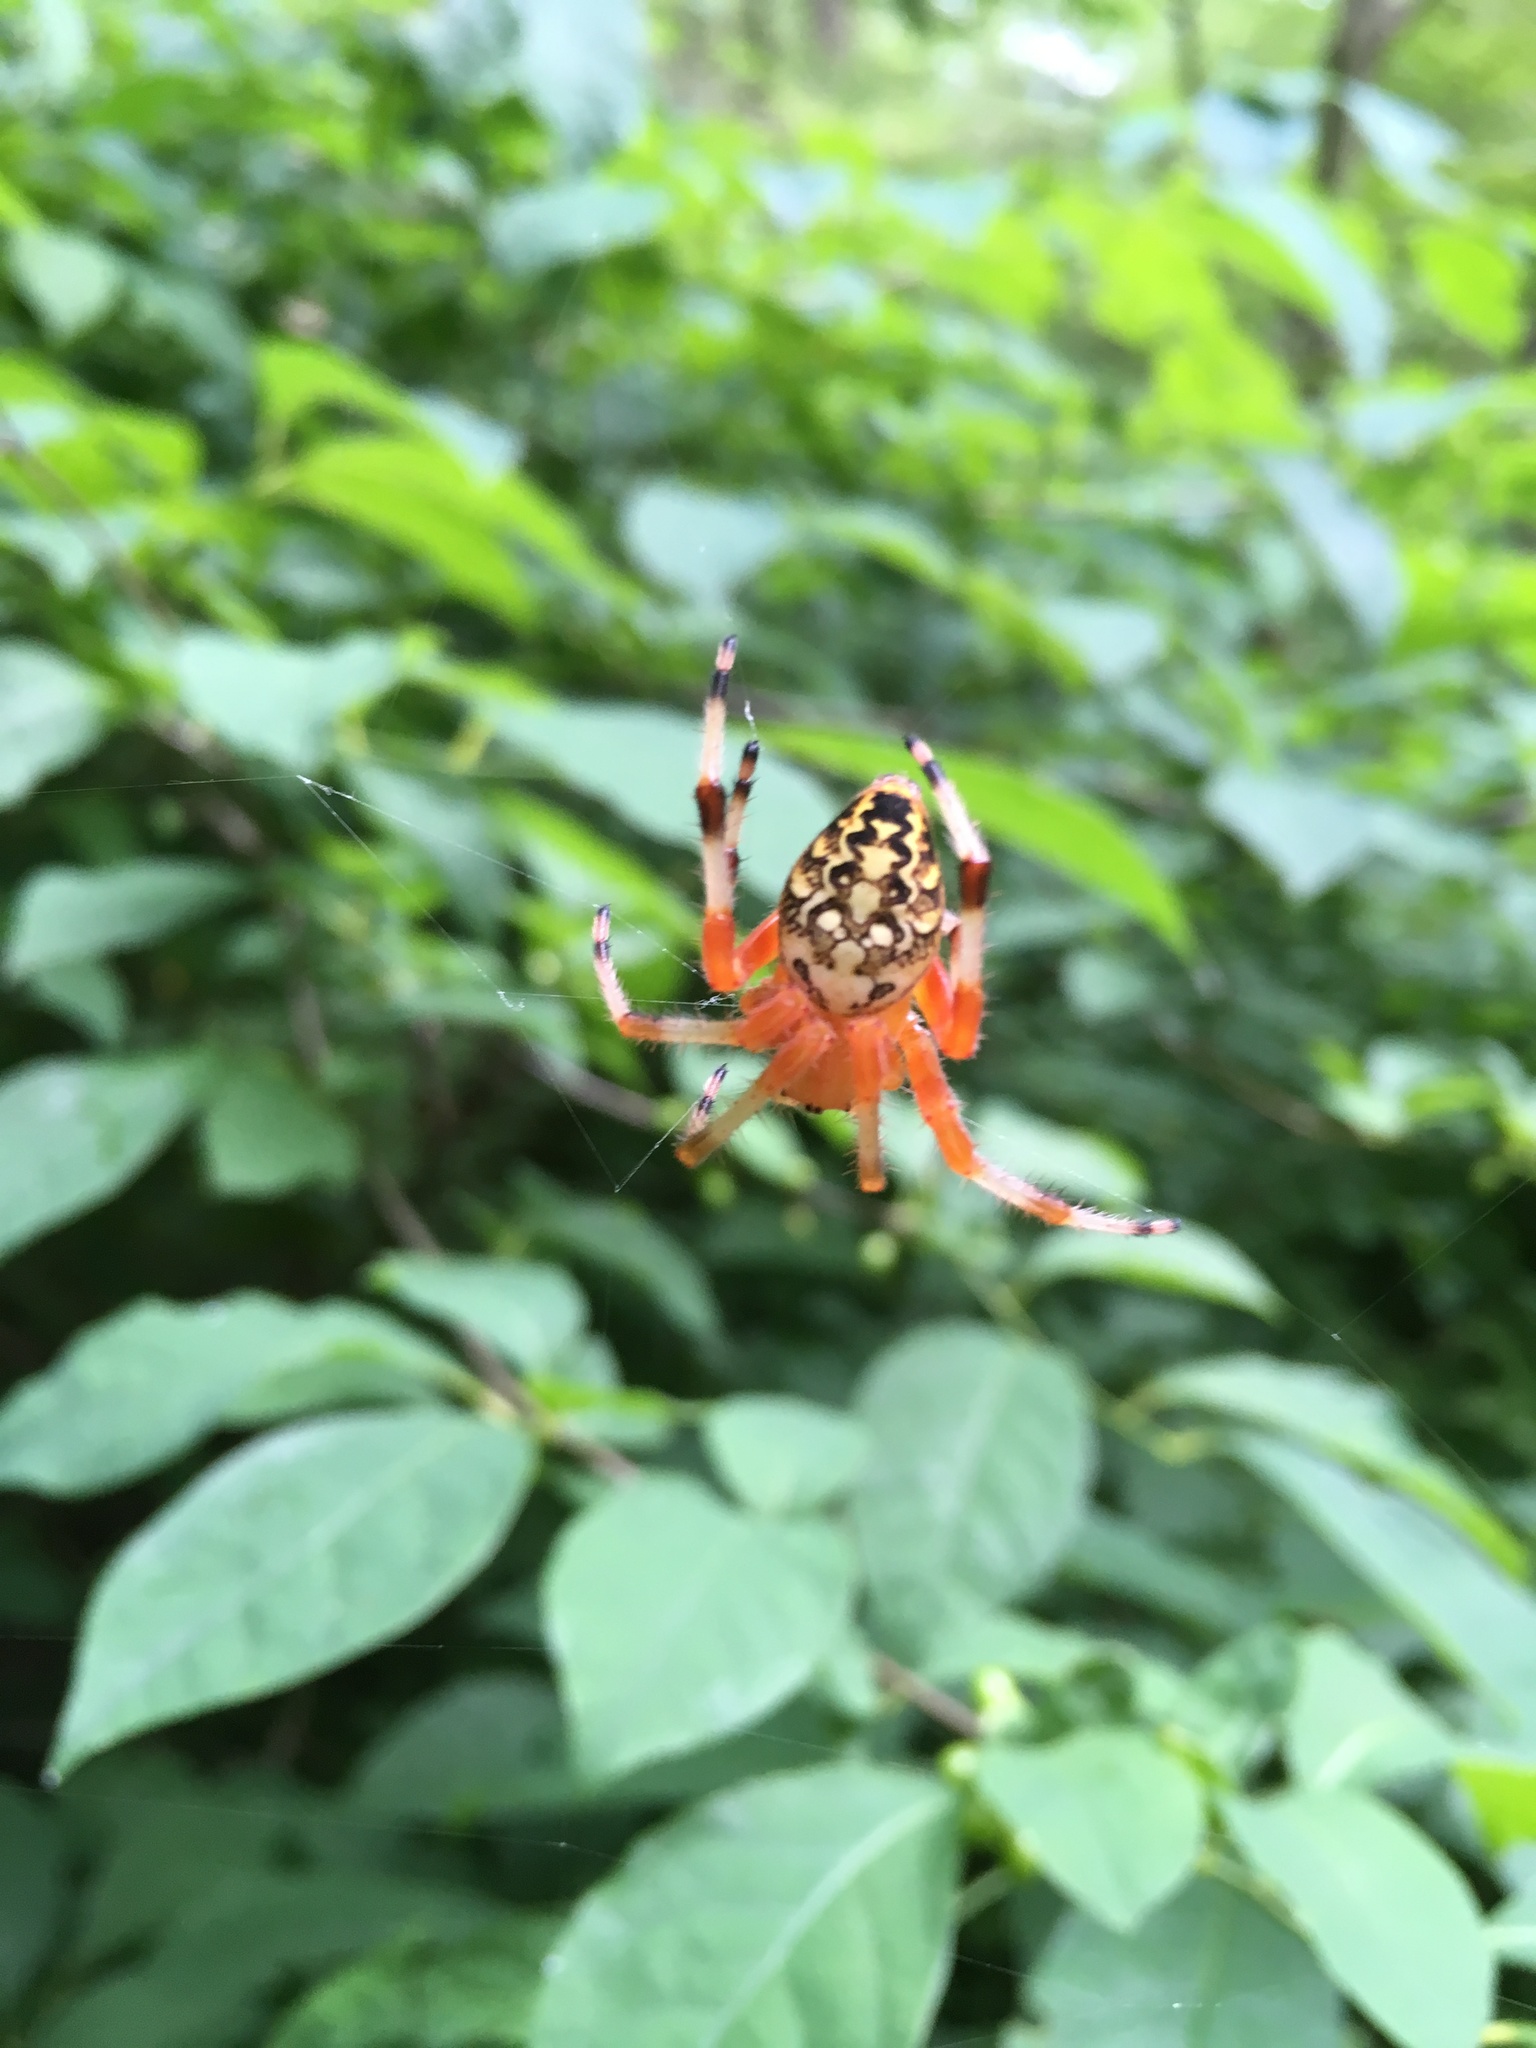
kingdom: Animalia
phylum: Arthropoda
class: Arachnida
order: Araneae
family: Araneidae
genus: Araneus
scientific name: Araneus marmoreus
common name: Marbled orbweaver
